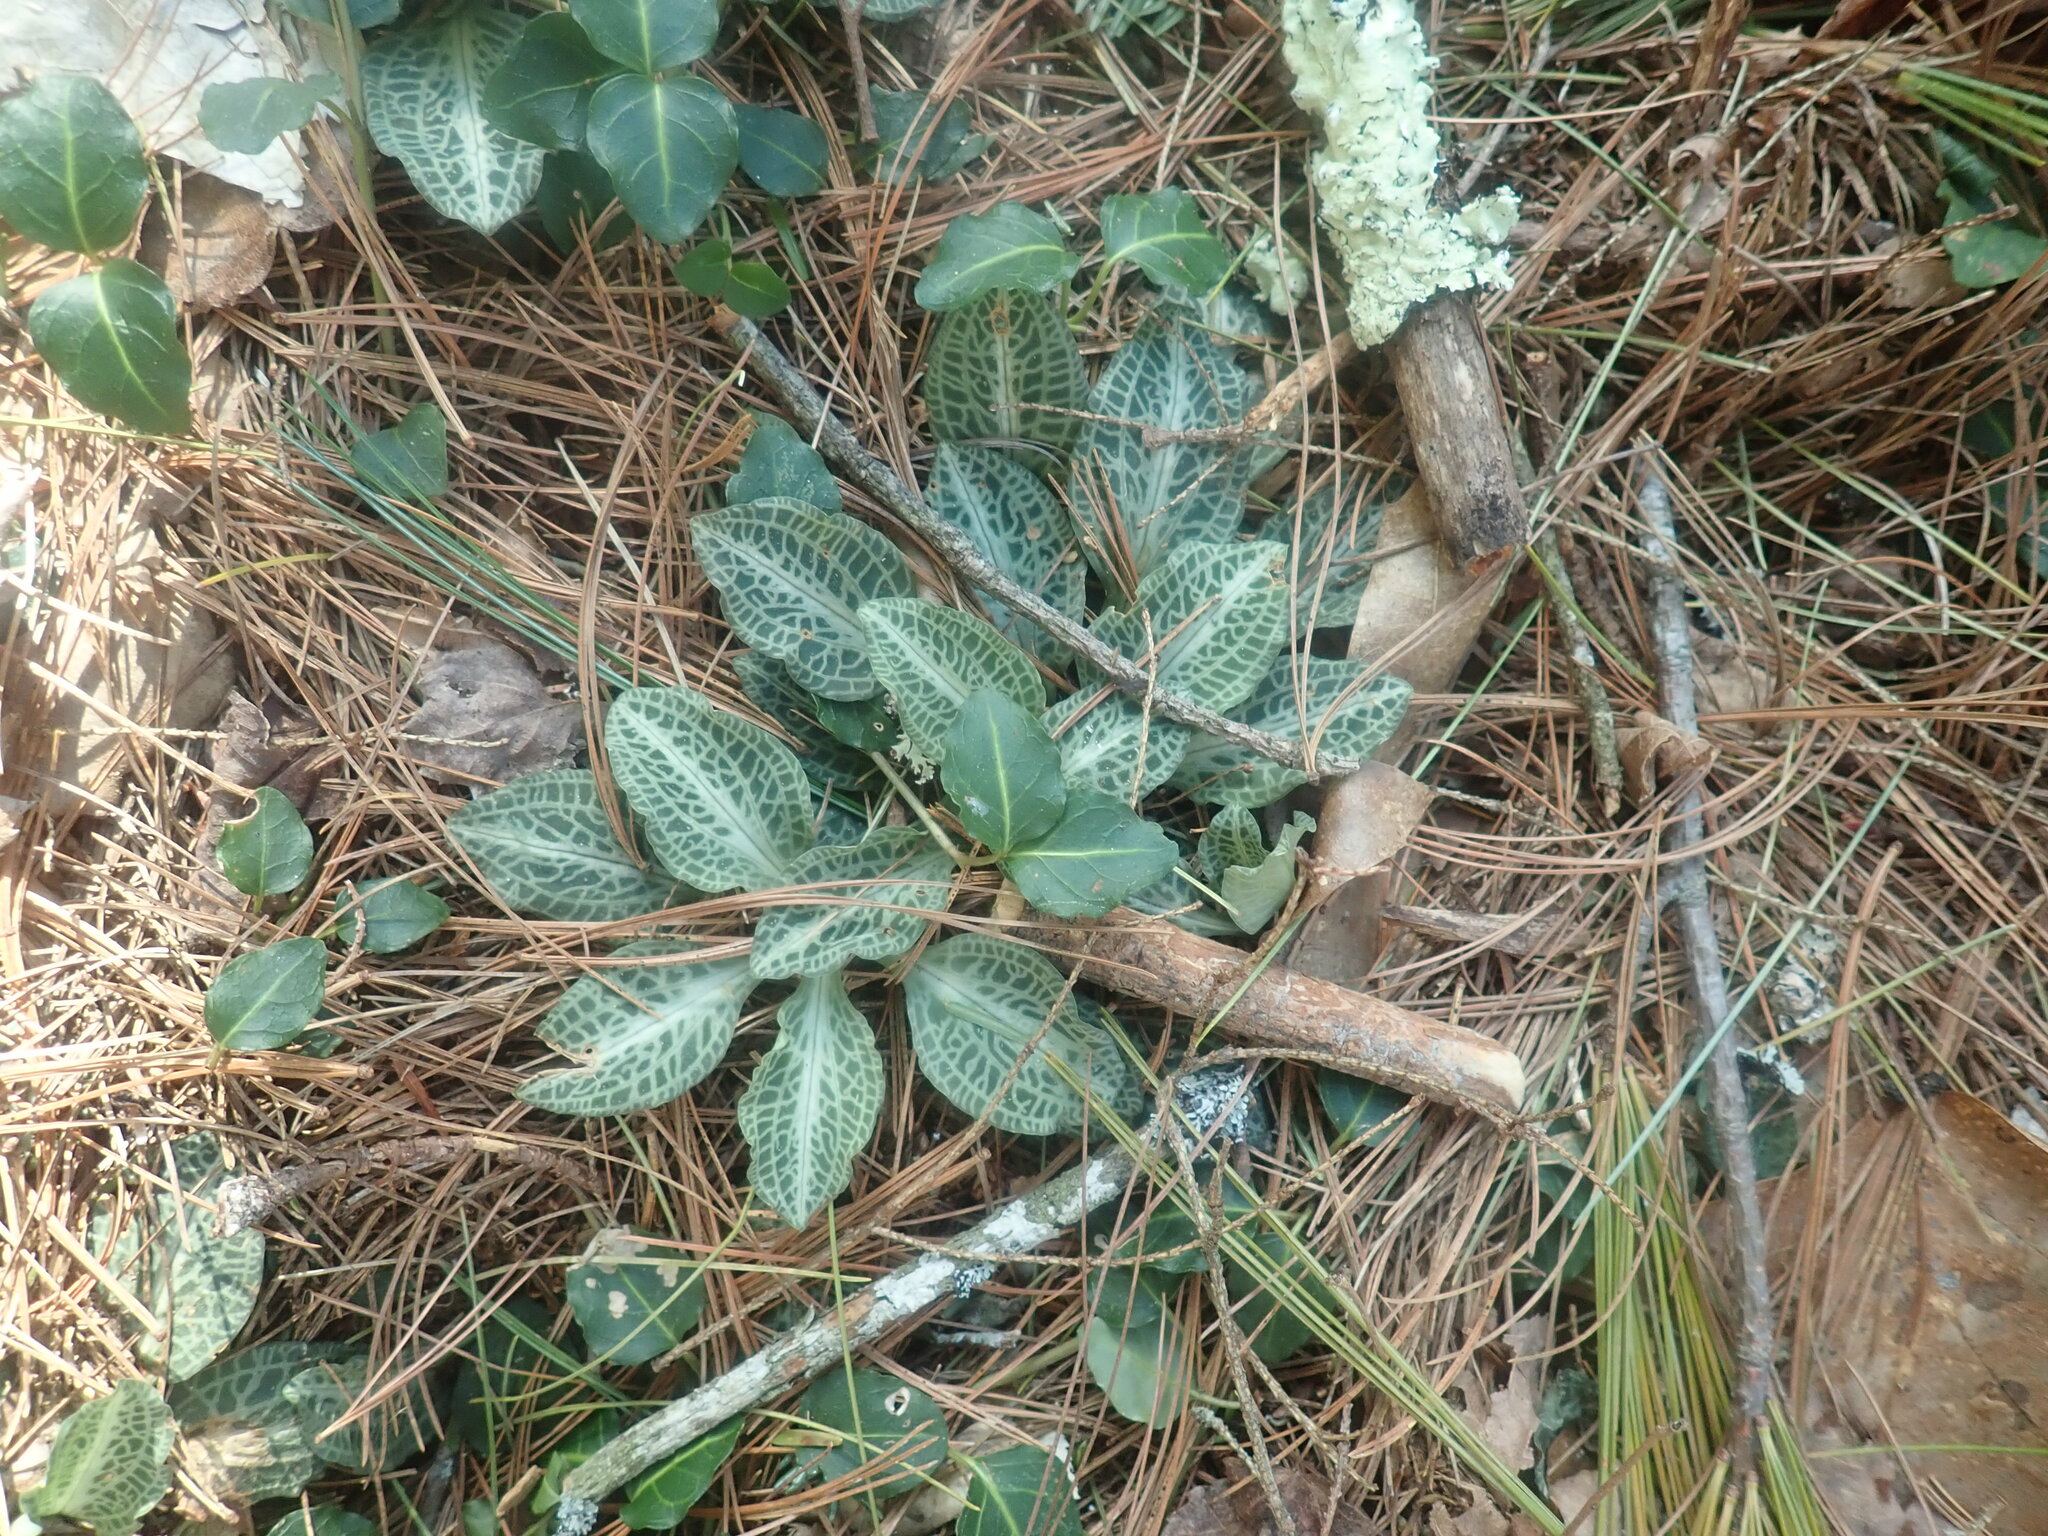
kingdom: Plantae
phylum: Tracheophyta
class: Liliopsida
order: Asparagales
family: Orchidaceae
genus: Goodyera
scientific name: Goodyera pubescens
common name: Downy rattlesnake-plantain
